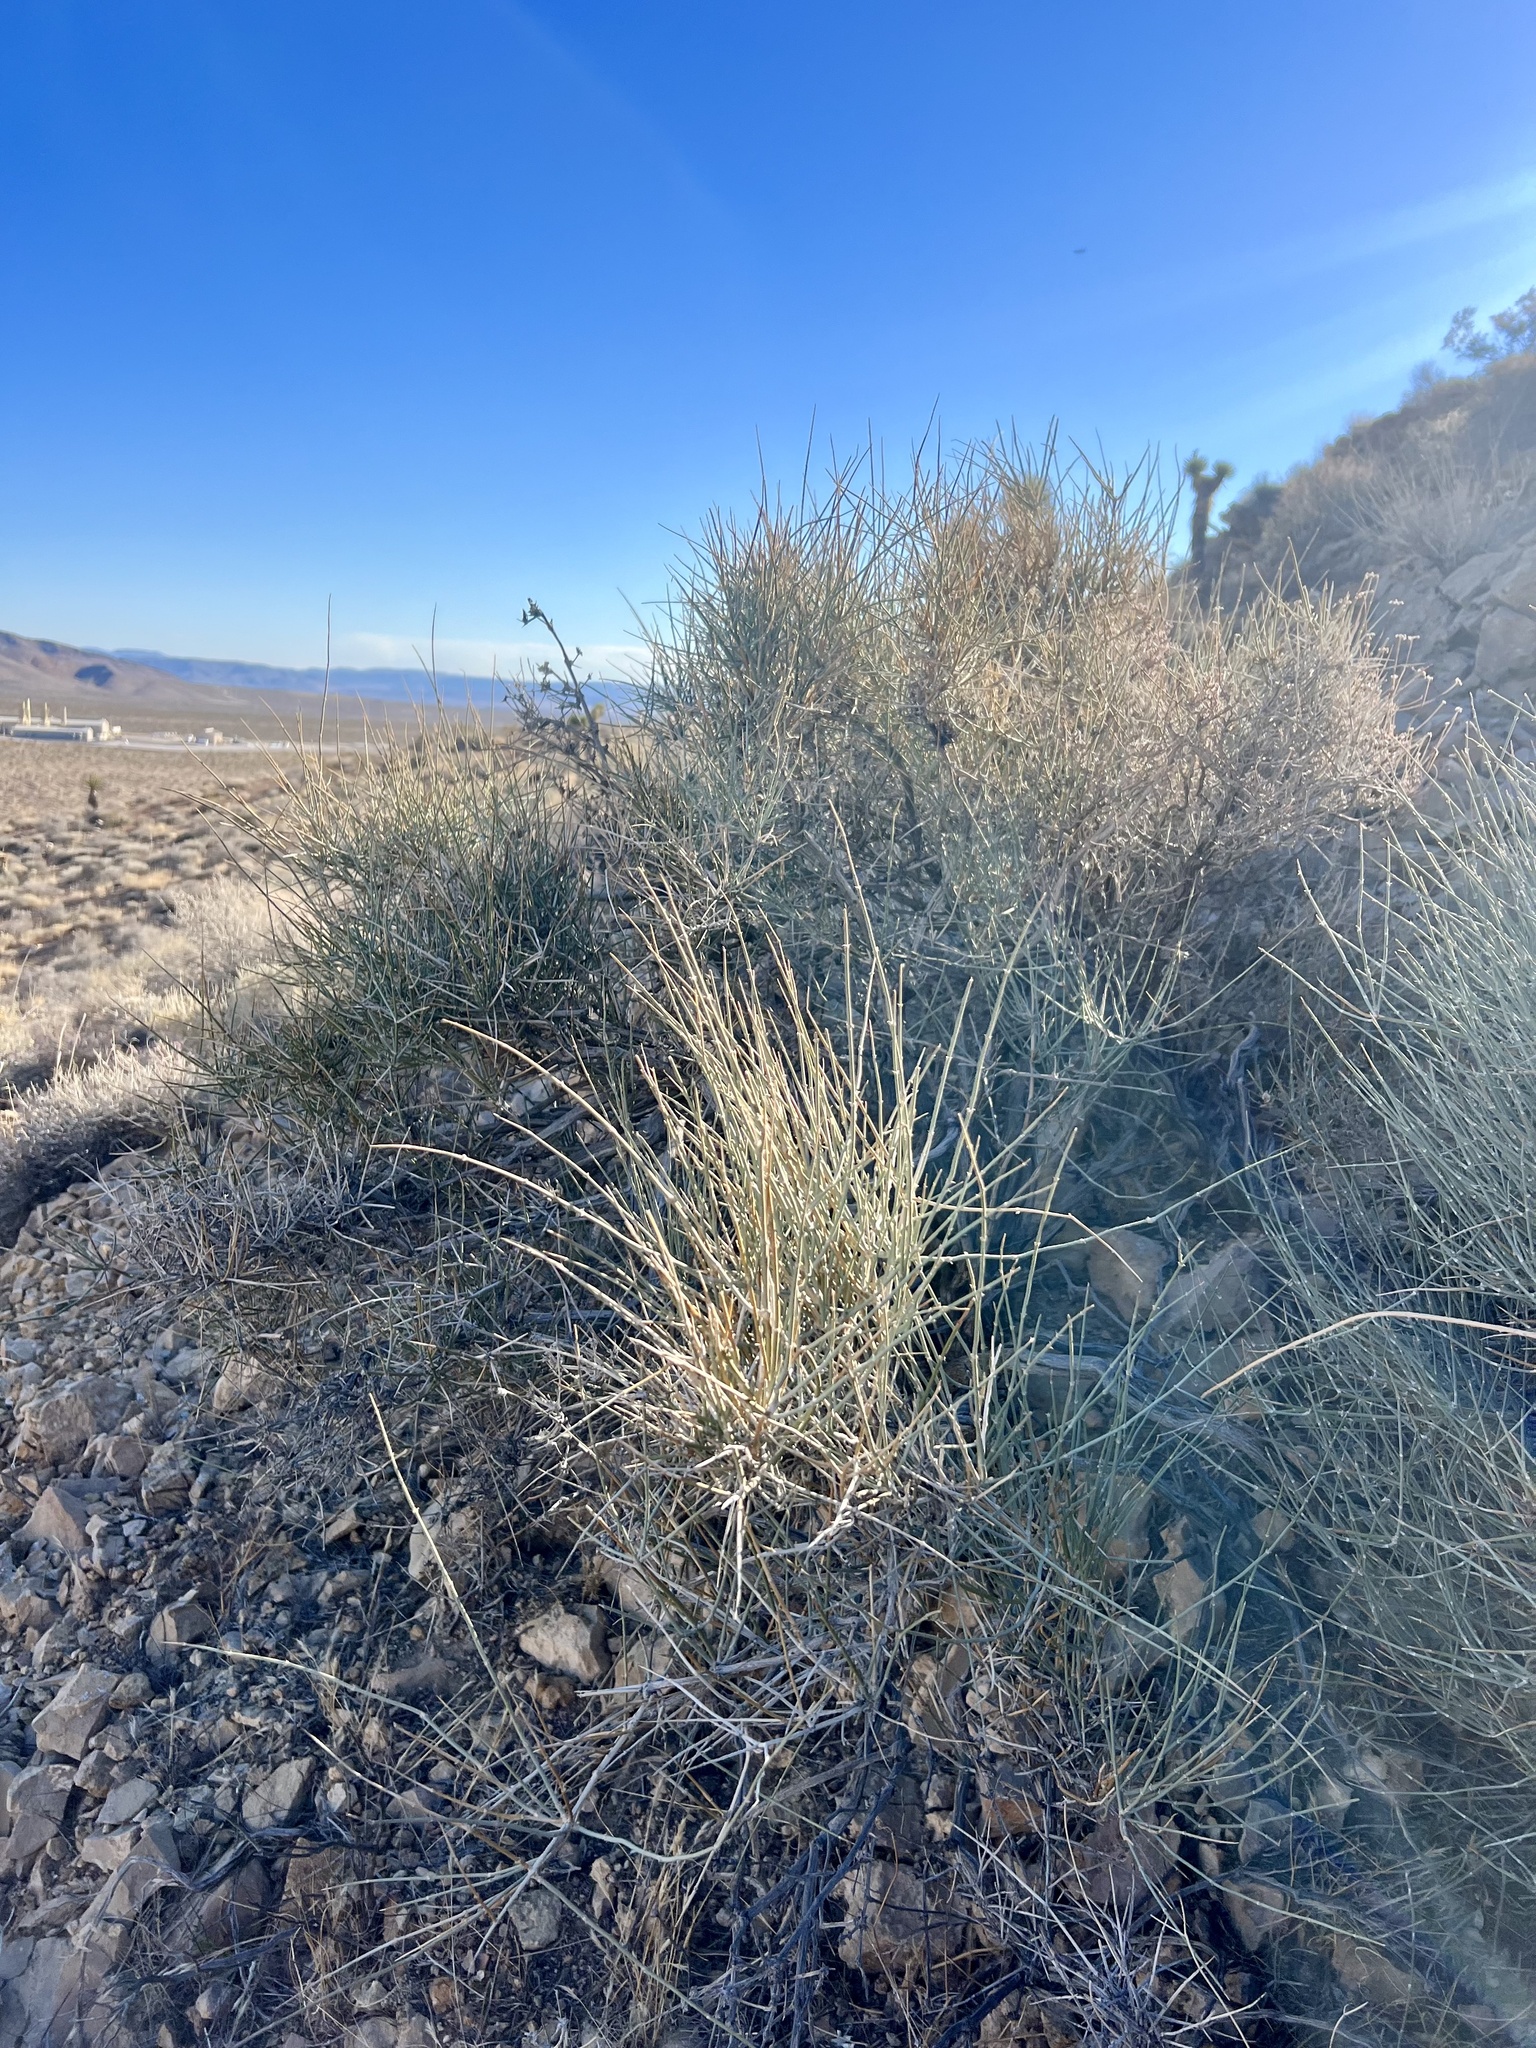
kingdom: Plantae
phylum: Tracheophyta
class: Gnetopsida
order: Ephedrales
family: Ephedraceae
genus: Ephedra
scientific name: Ephedra nevadensis
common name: Gray ephedra
